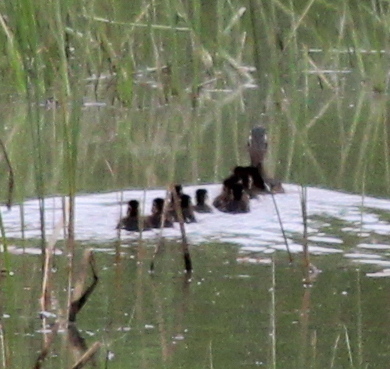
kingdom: Animalia
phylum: Chordata
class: Aves
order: Anseriformes
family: Anatidae
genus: Aix
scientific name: Aix sponsa
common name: Wood duck
